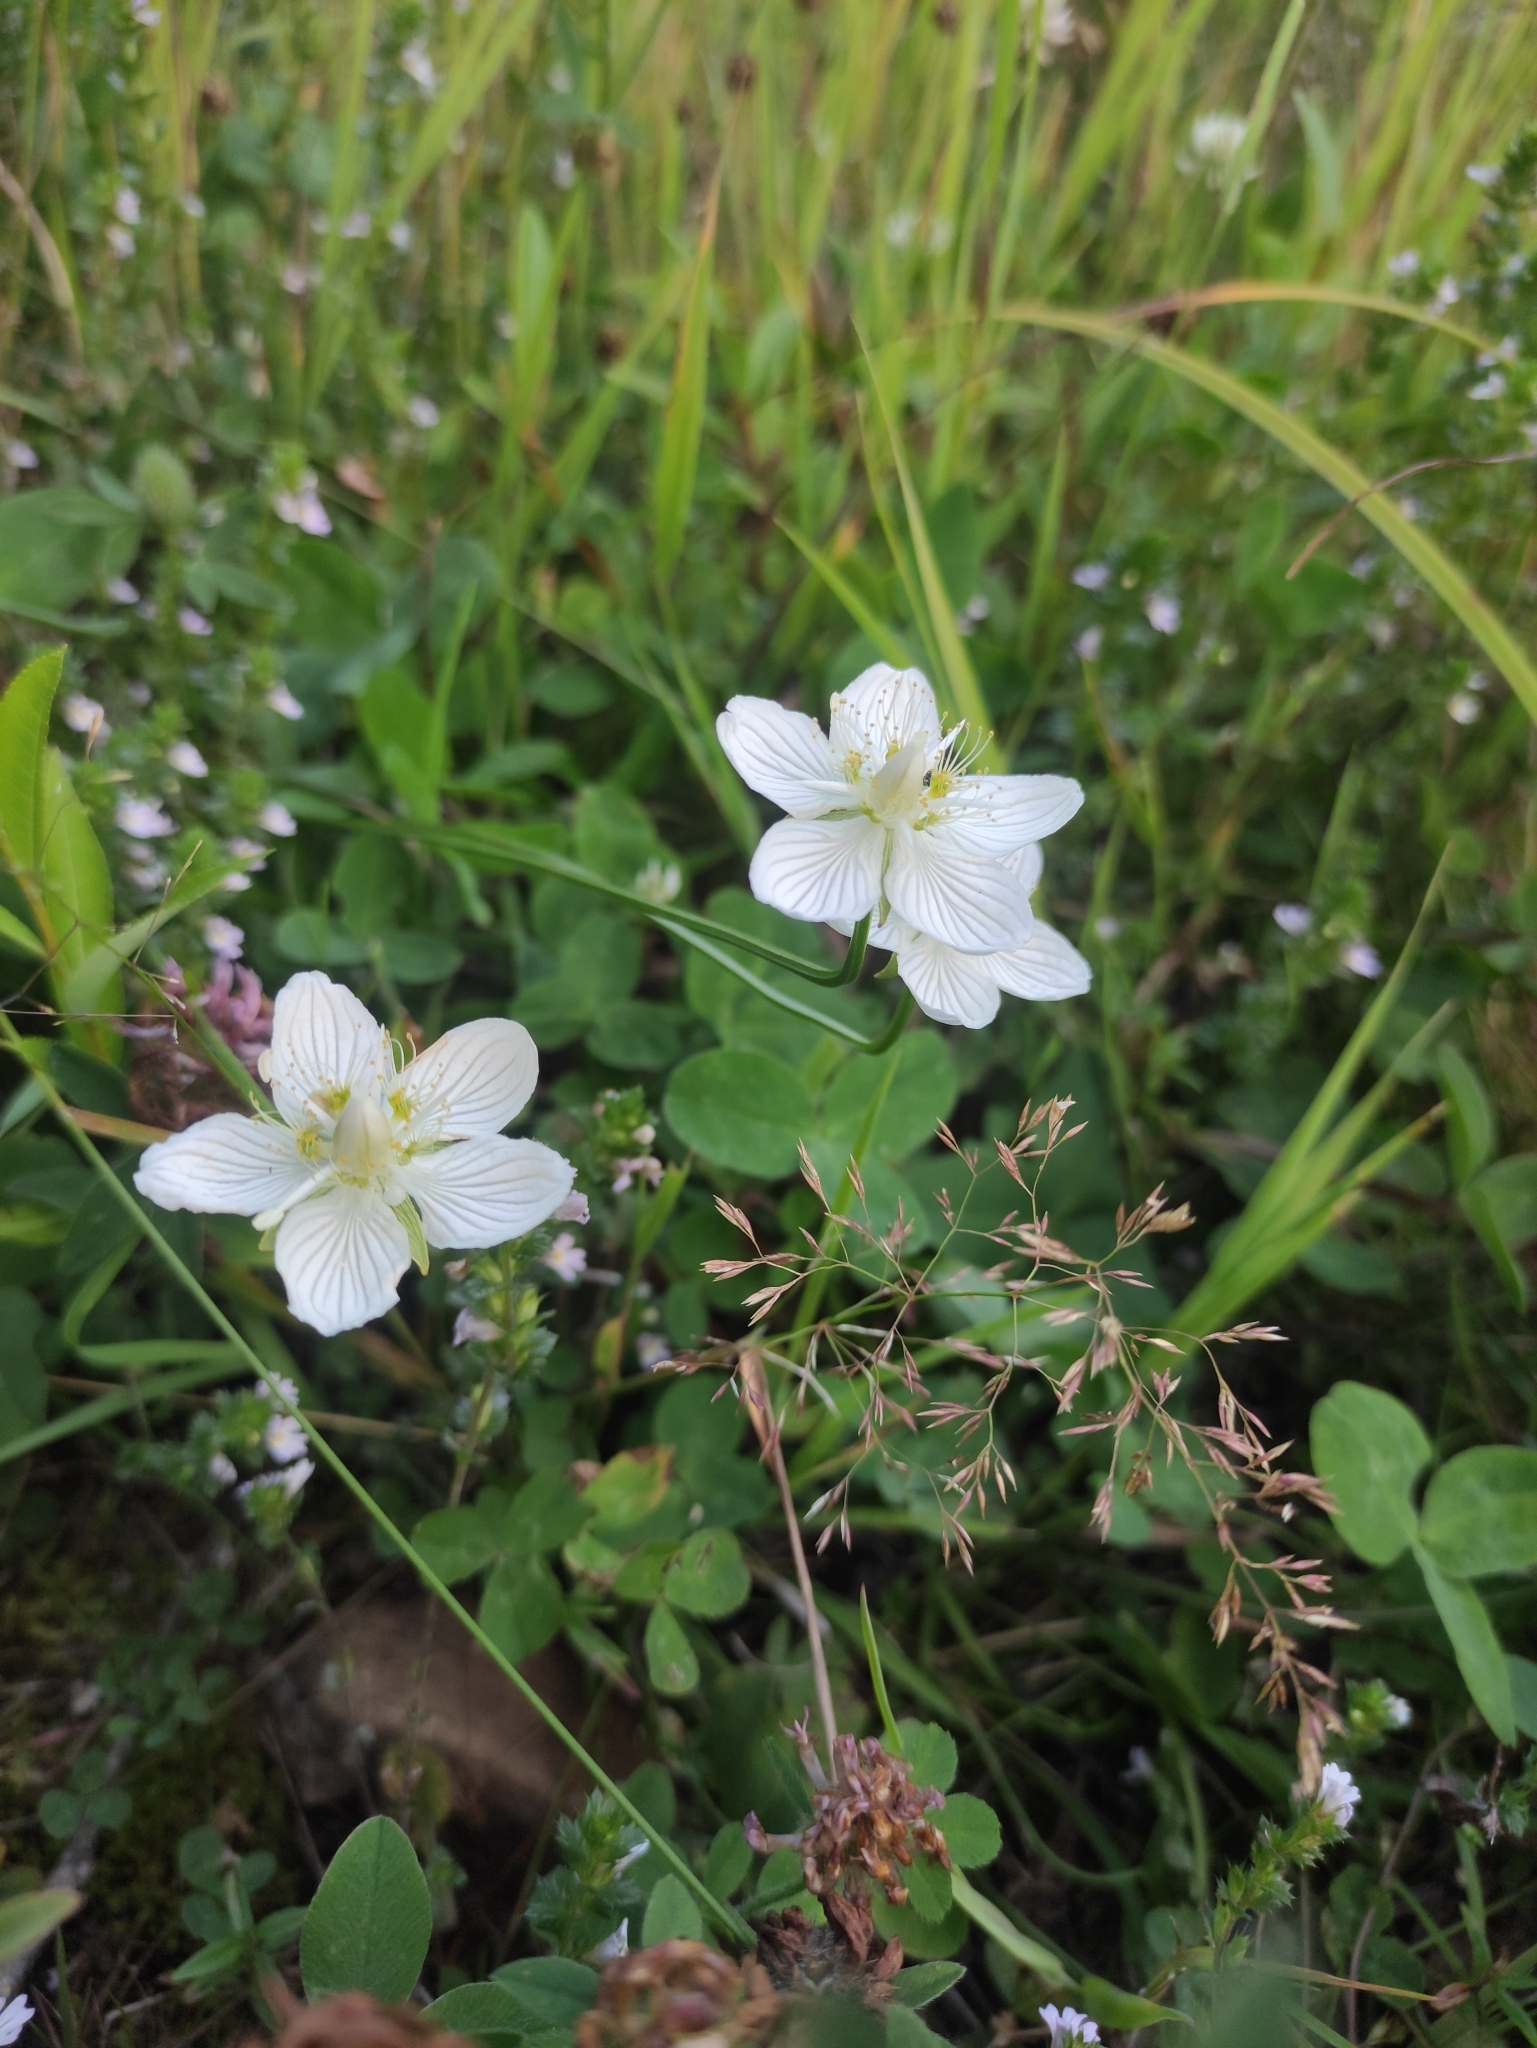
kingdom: Plantae
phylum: Tracheophyta
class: Magnoliopsida
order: Celastrales
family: Parnassiaceae
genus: Parnassia
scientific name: Parnassia palustris
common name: Grass-of-parnassus
